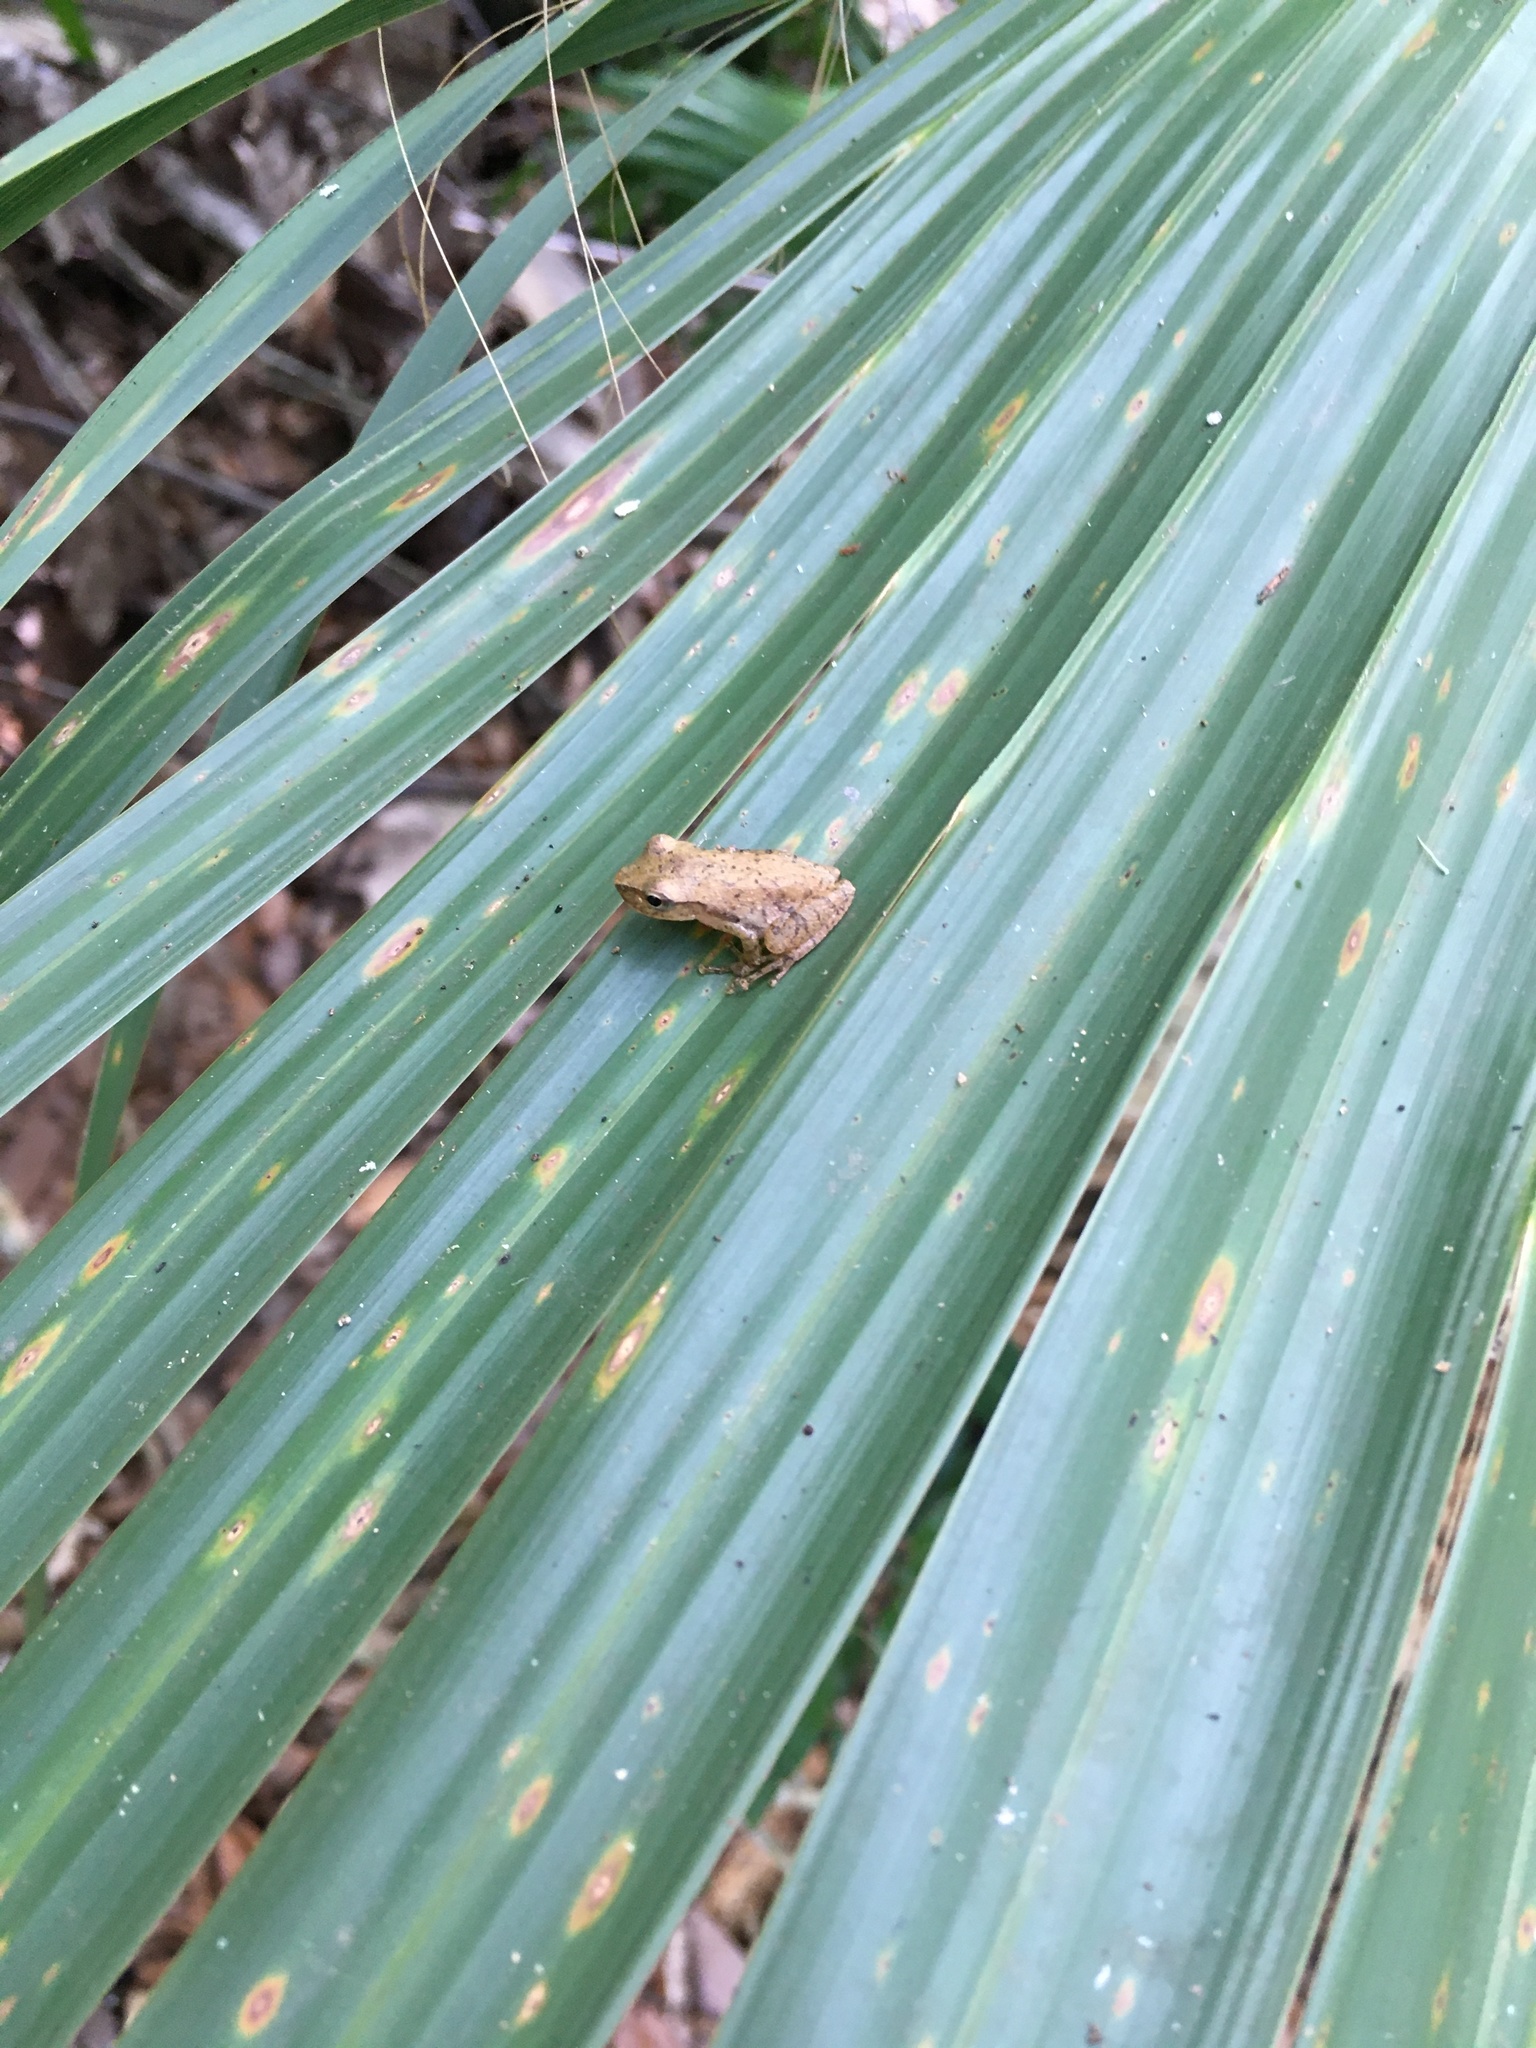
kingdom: Animalia
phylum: Chordata
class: Amphibia
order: Anura
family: Hylidae
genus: Pseudacris
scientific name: Pseudacris crucifer
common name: Spring peeper
